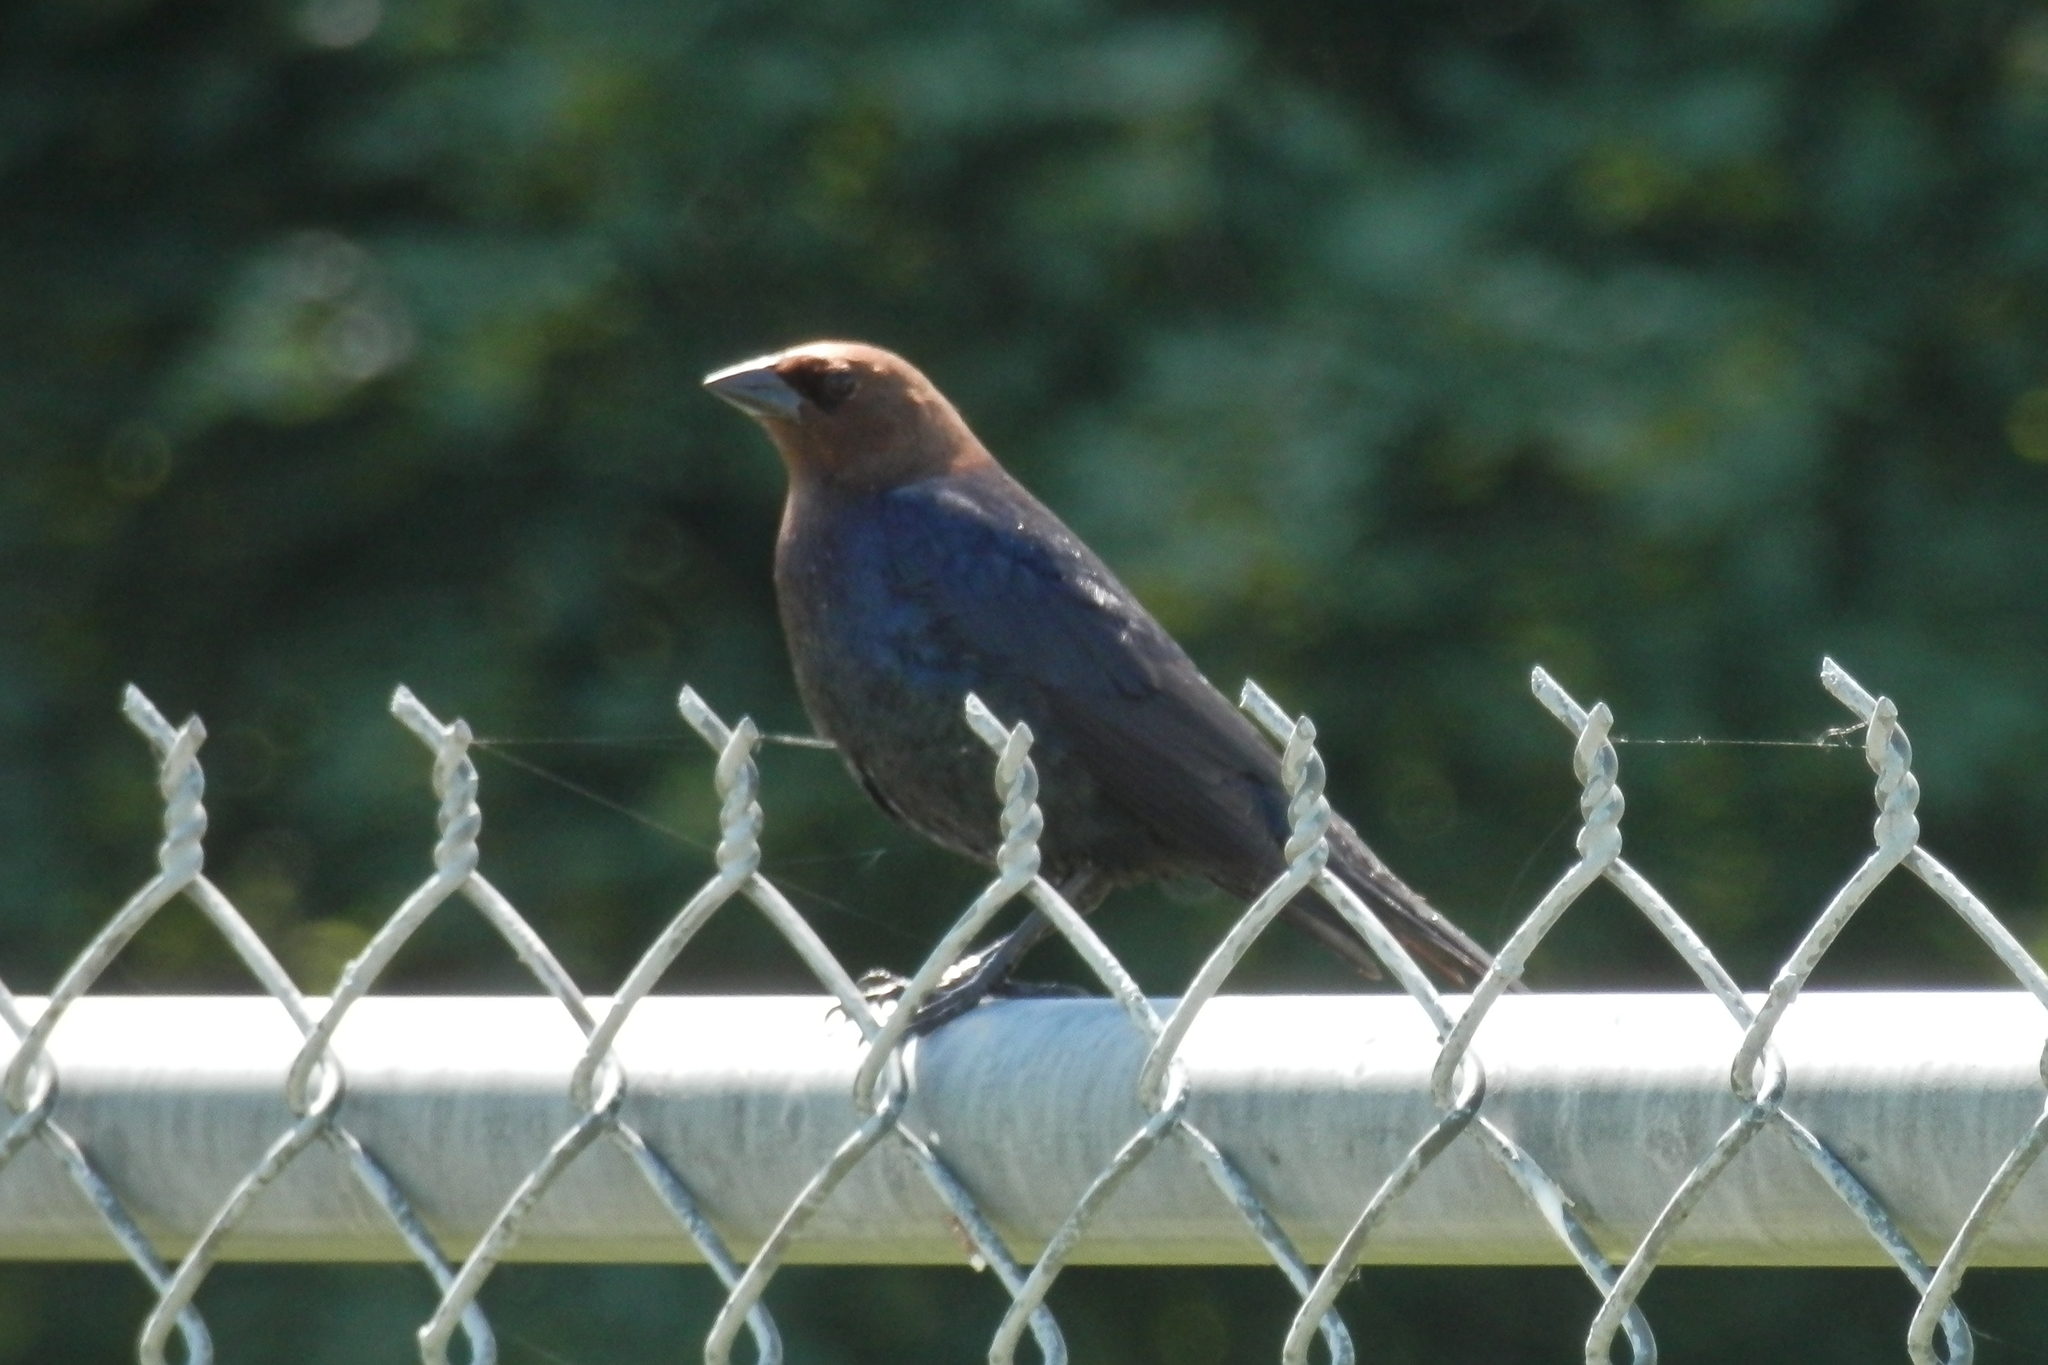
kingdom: Animalia
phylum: Chordata
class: Aves
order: Passeriformes
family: Icteridae
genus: Molothrus
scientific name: Molothrus ater
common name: Brown-headed cowbird
